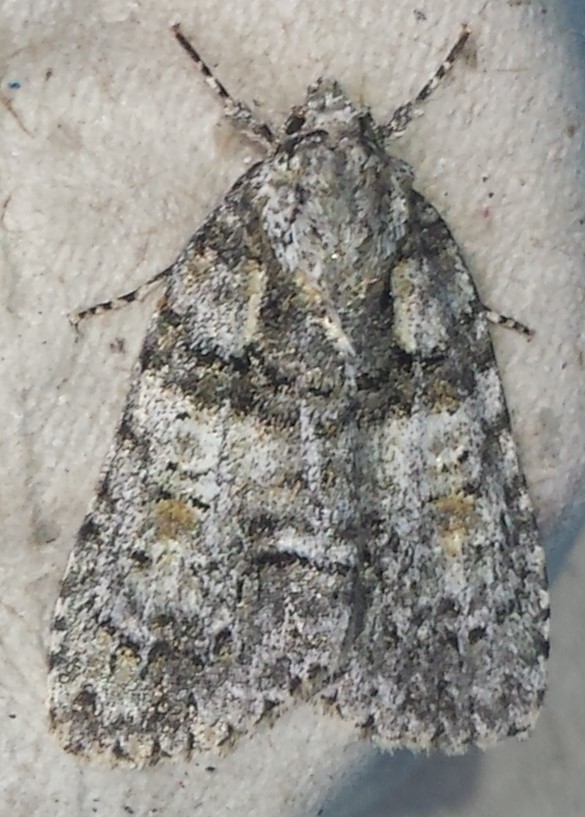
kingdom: Animalia
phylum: Arthropoda
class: Insecta
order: Lepidoptera
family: Noctuidae
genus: Acronicta
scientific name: Acronicta increta
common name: Eclipsed oak dagger
